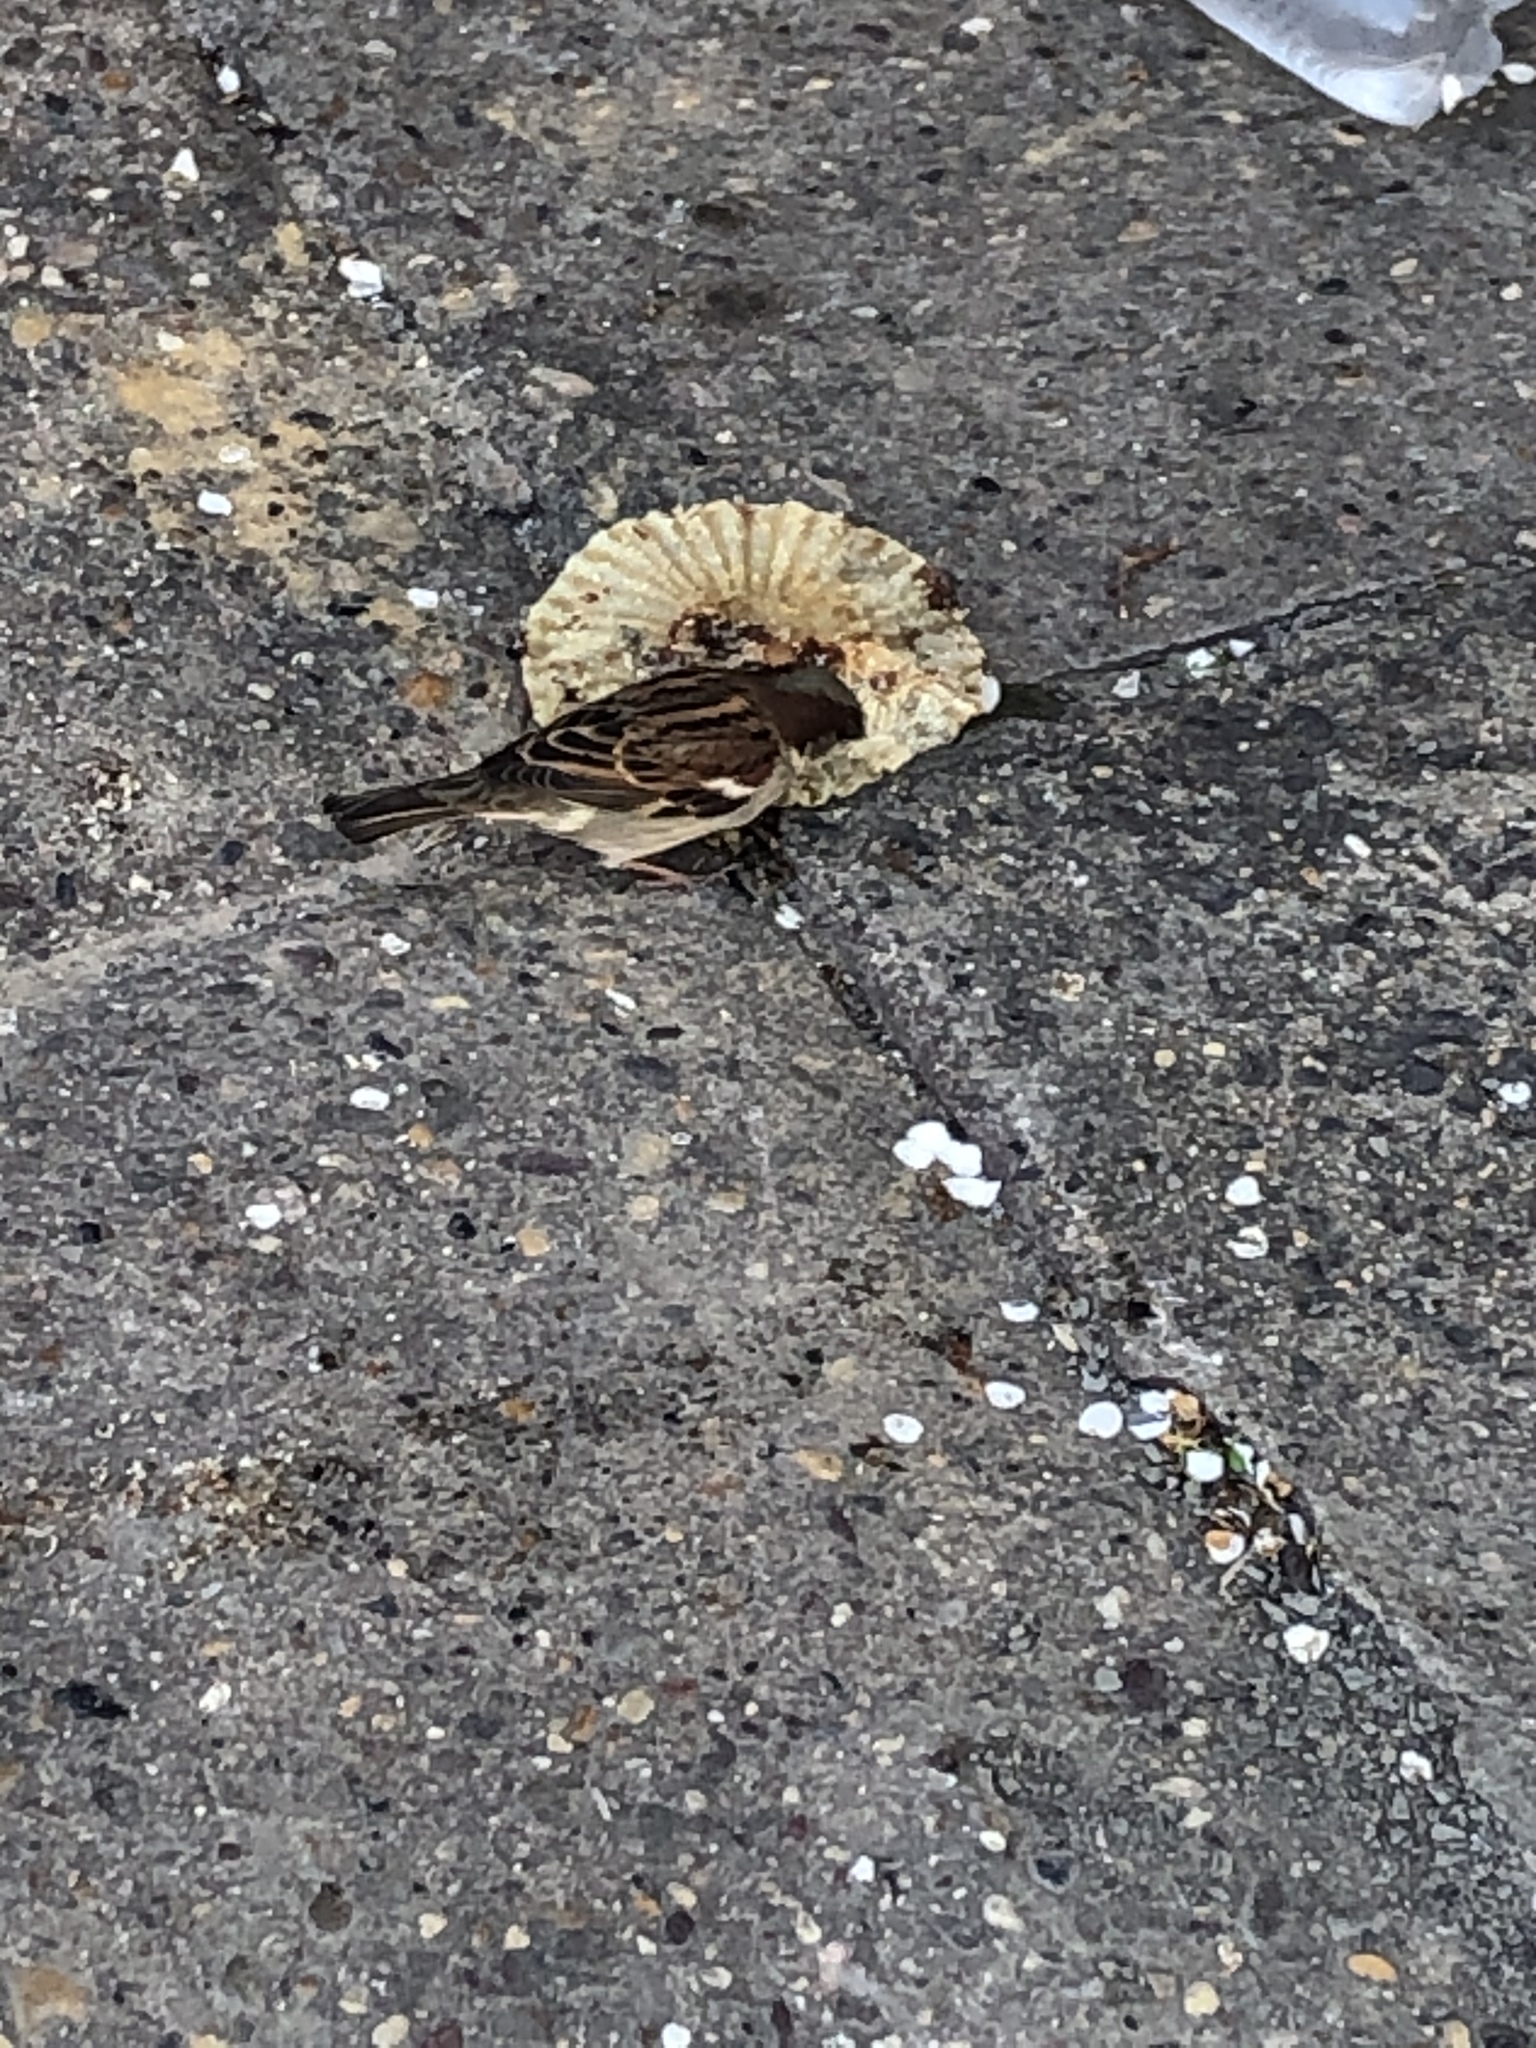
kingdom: Animalia
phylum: Chordata
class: Aves
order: Passeriformes
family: Passeridae
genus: Passer
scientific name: Passer domesticus
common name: House sparrow
